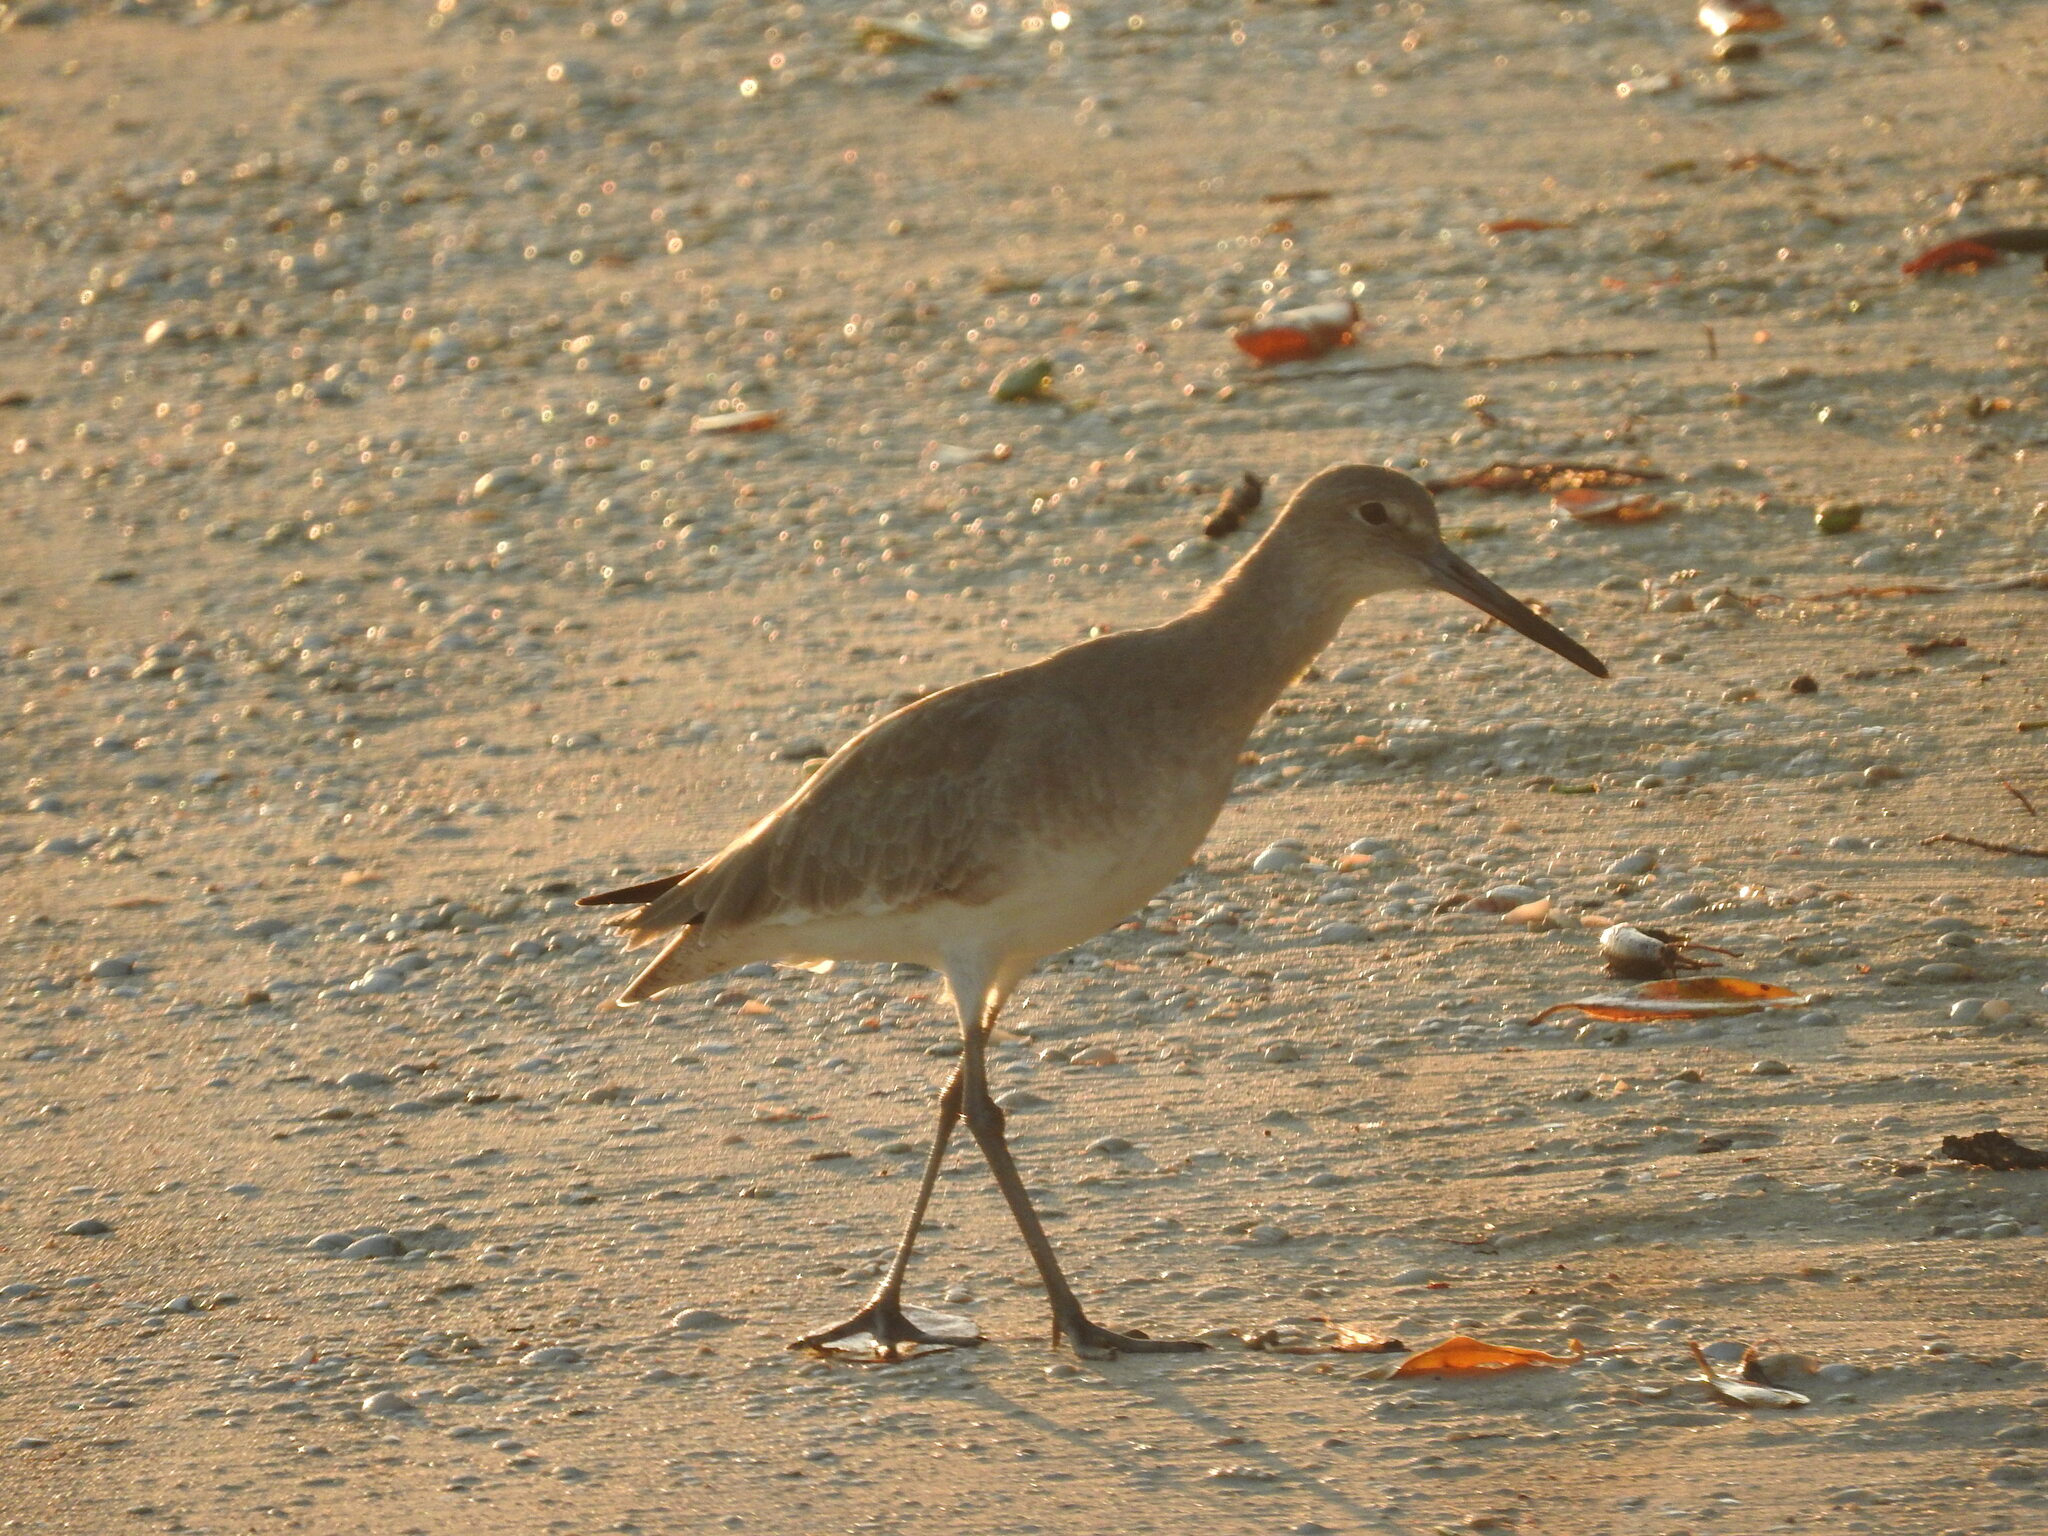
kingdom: Animalia
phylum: Chordata
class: Aves
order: Charadriiformes
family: Scolopacidae
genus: Tringa
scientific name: Tringa semipalmata
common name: Willet
